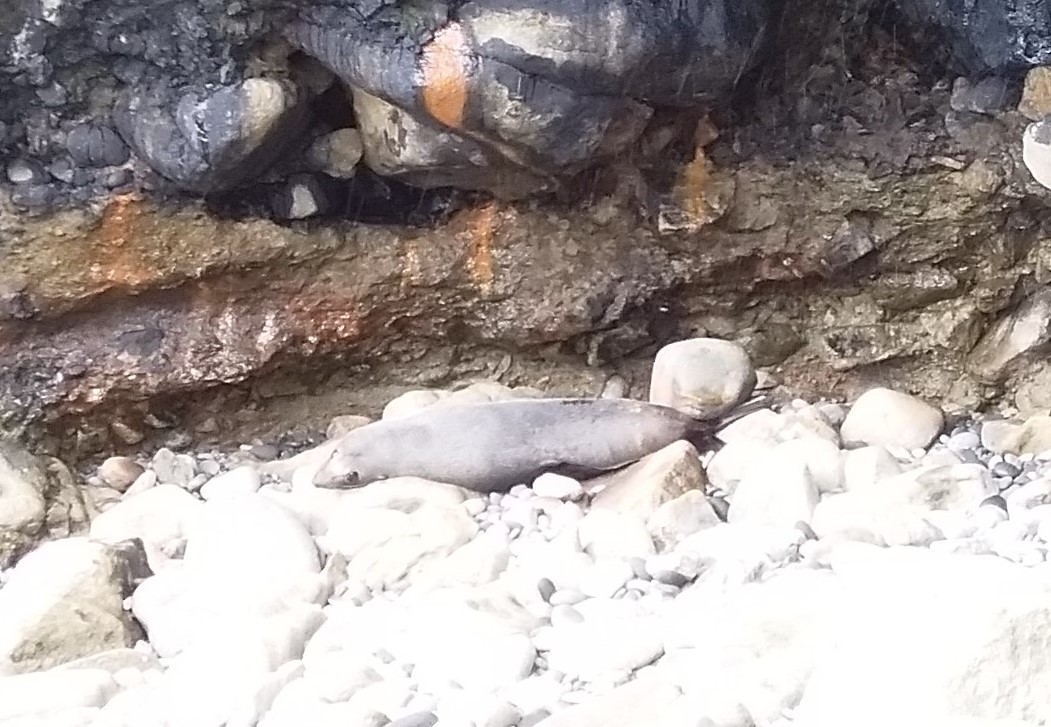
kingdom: Animalia
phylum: Chordata
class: Mammalia
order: Carnivora
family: Otariidae
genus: Arctocephalus
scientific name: Arctocephalus forsteri
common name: New zealand fur seal
